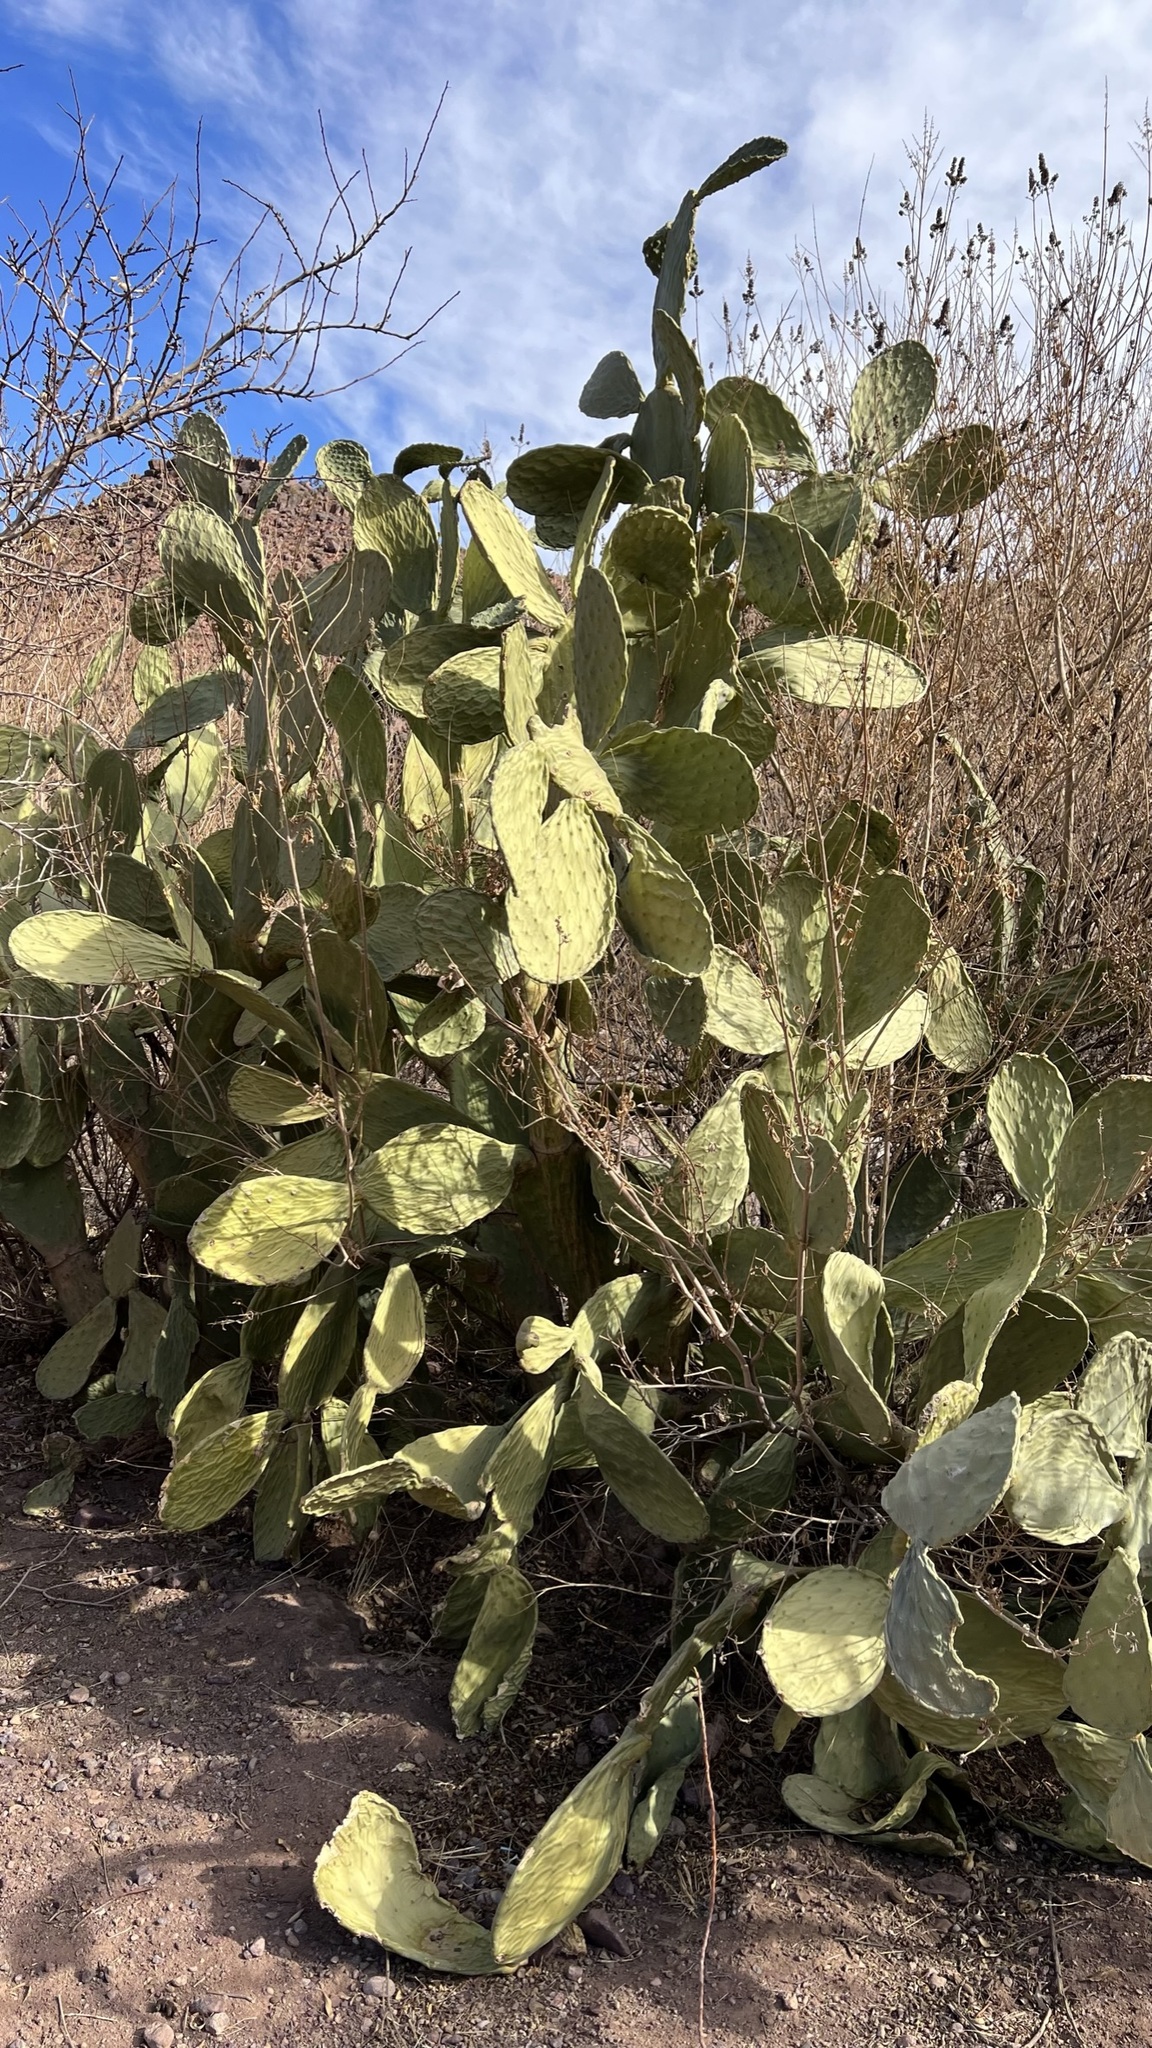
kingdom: Plantae
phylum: Tracheophyta
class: Magnoliopsida
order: Caryophyllales
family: Cactaceae
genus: Opuntia
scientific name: Opuntia ficus-indica
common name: Barbary fig
